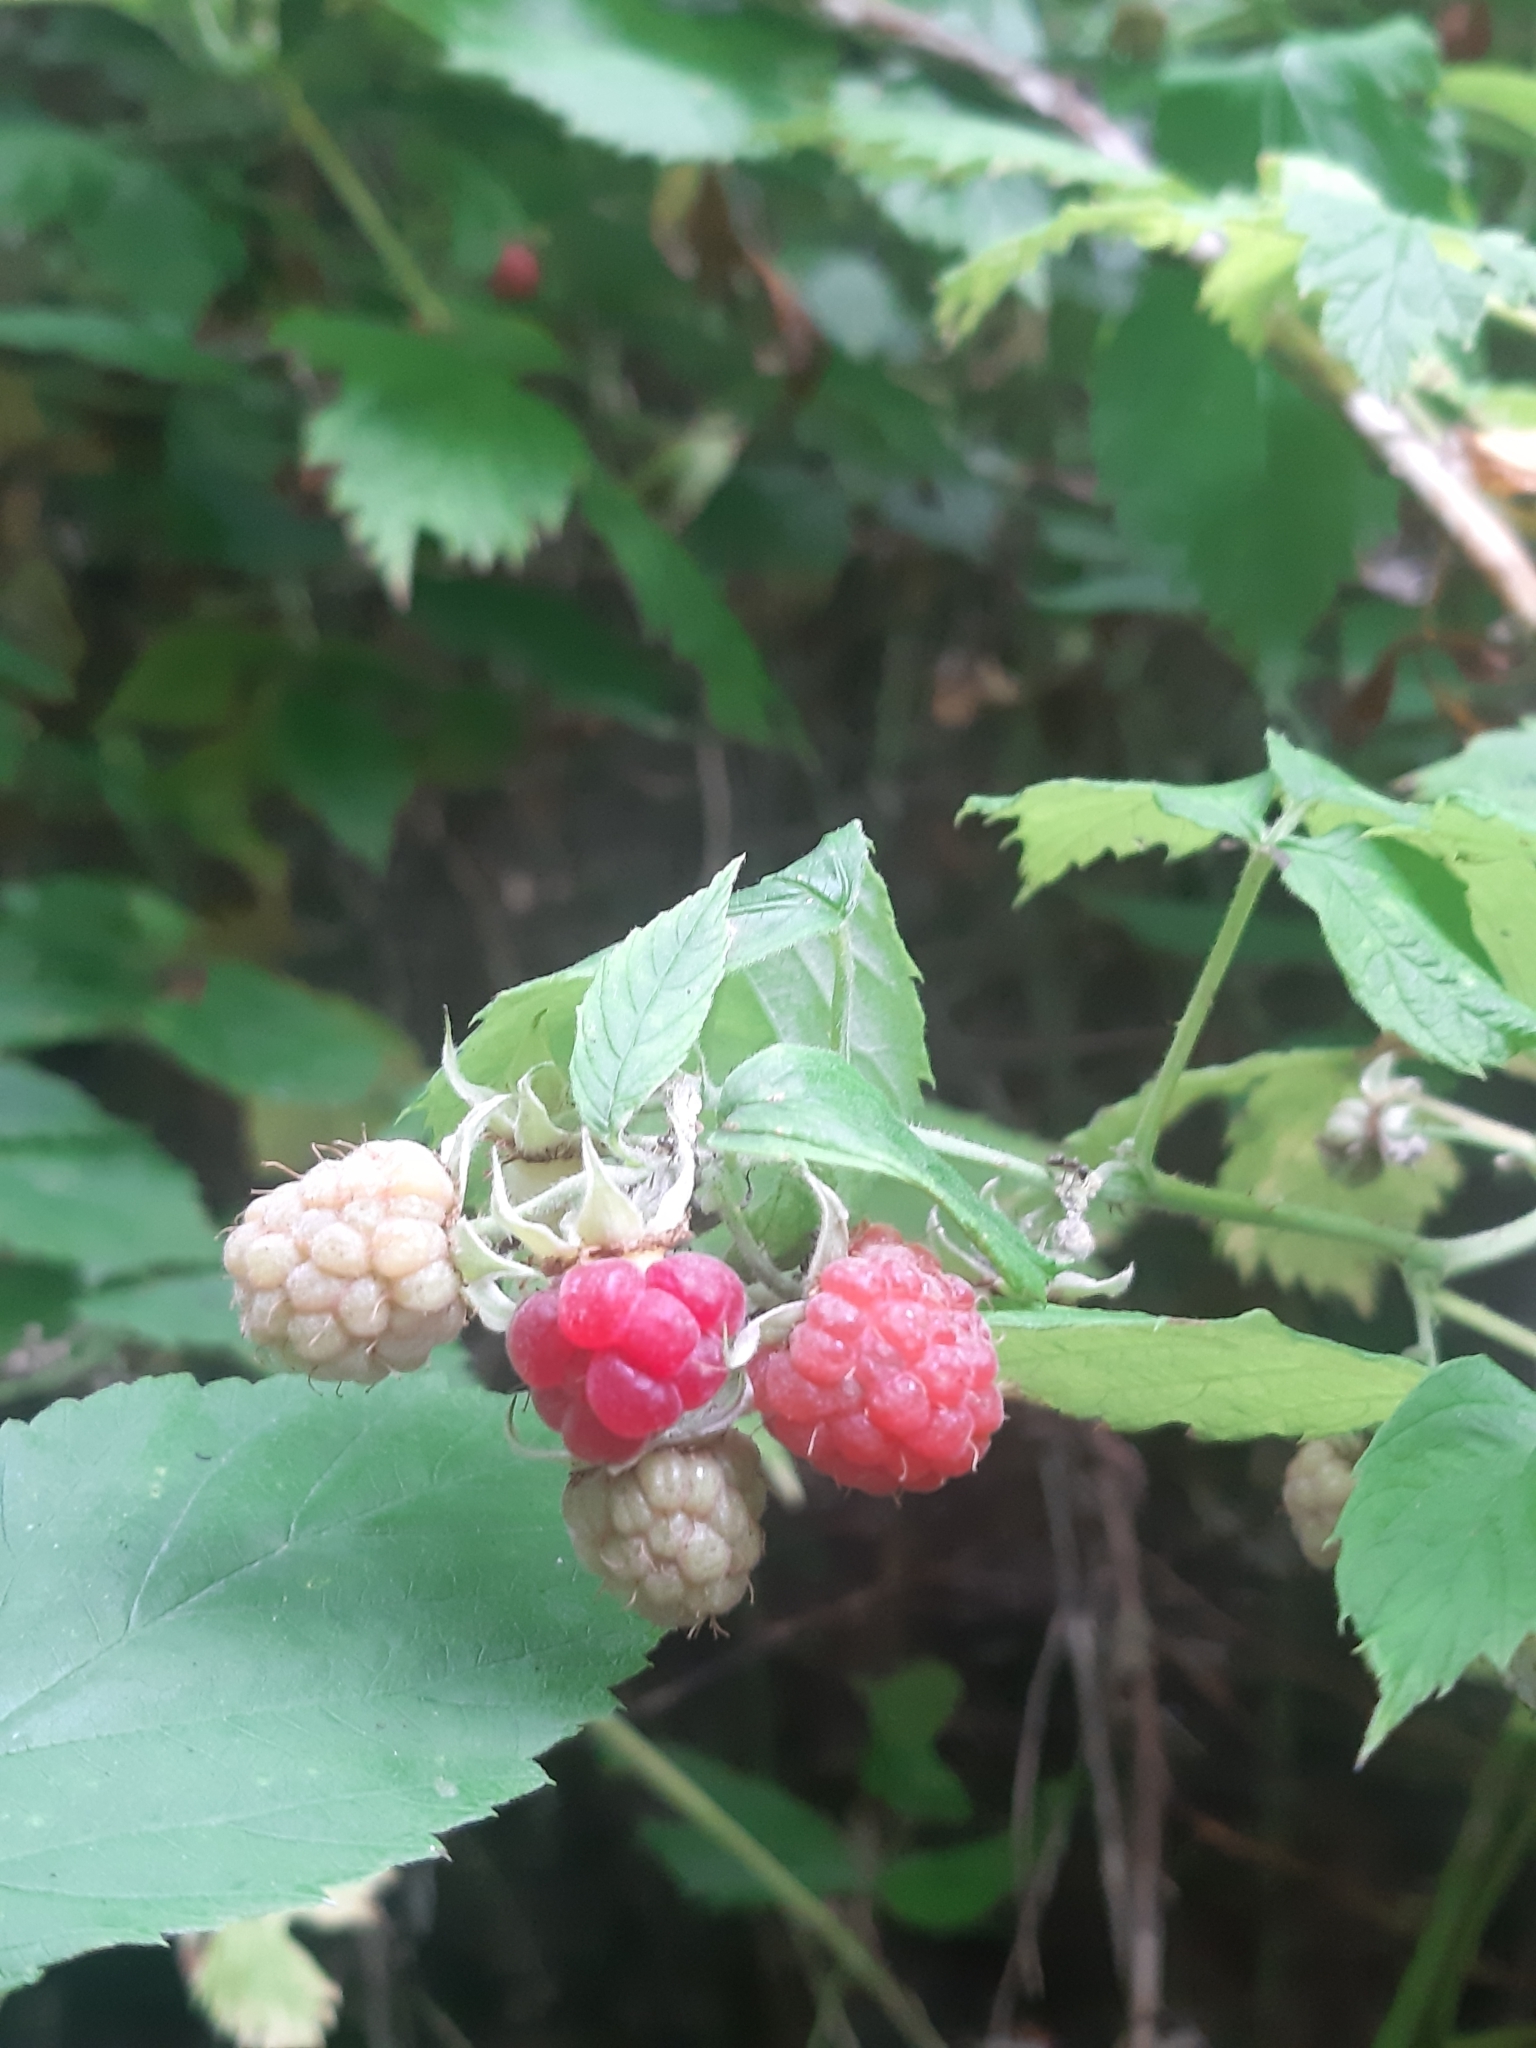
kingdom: Plantae
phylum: Tracheophyta
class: Magnoliopsida
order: Rosales
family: Rosaceae
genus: Rubus
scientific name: Rubus idaeus
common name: Raspberry
